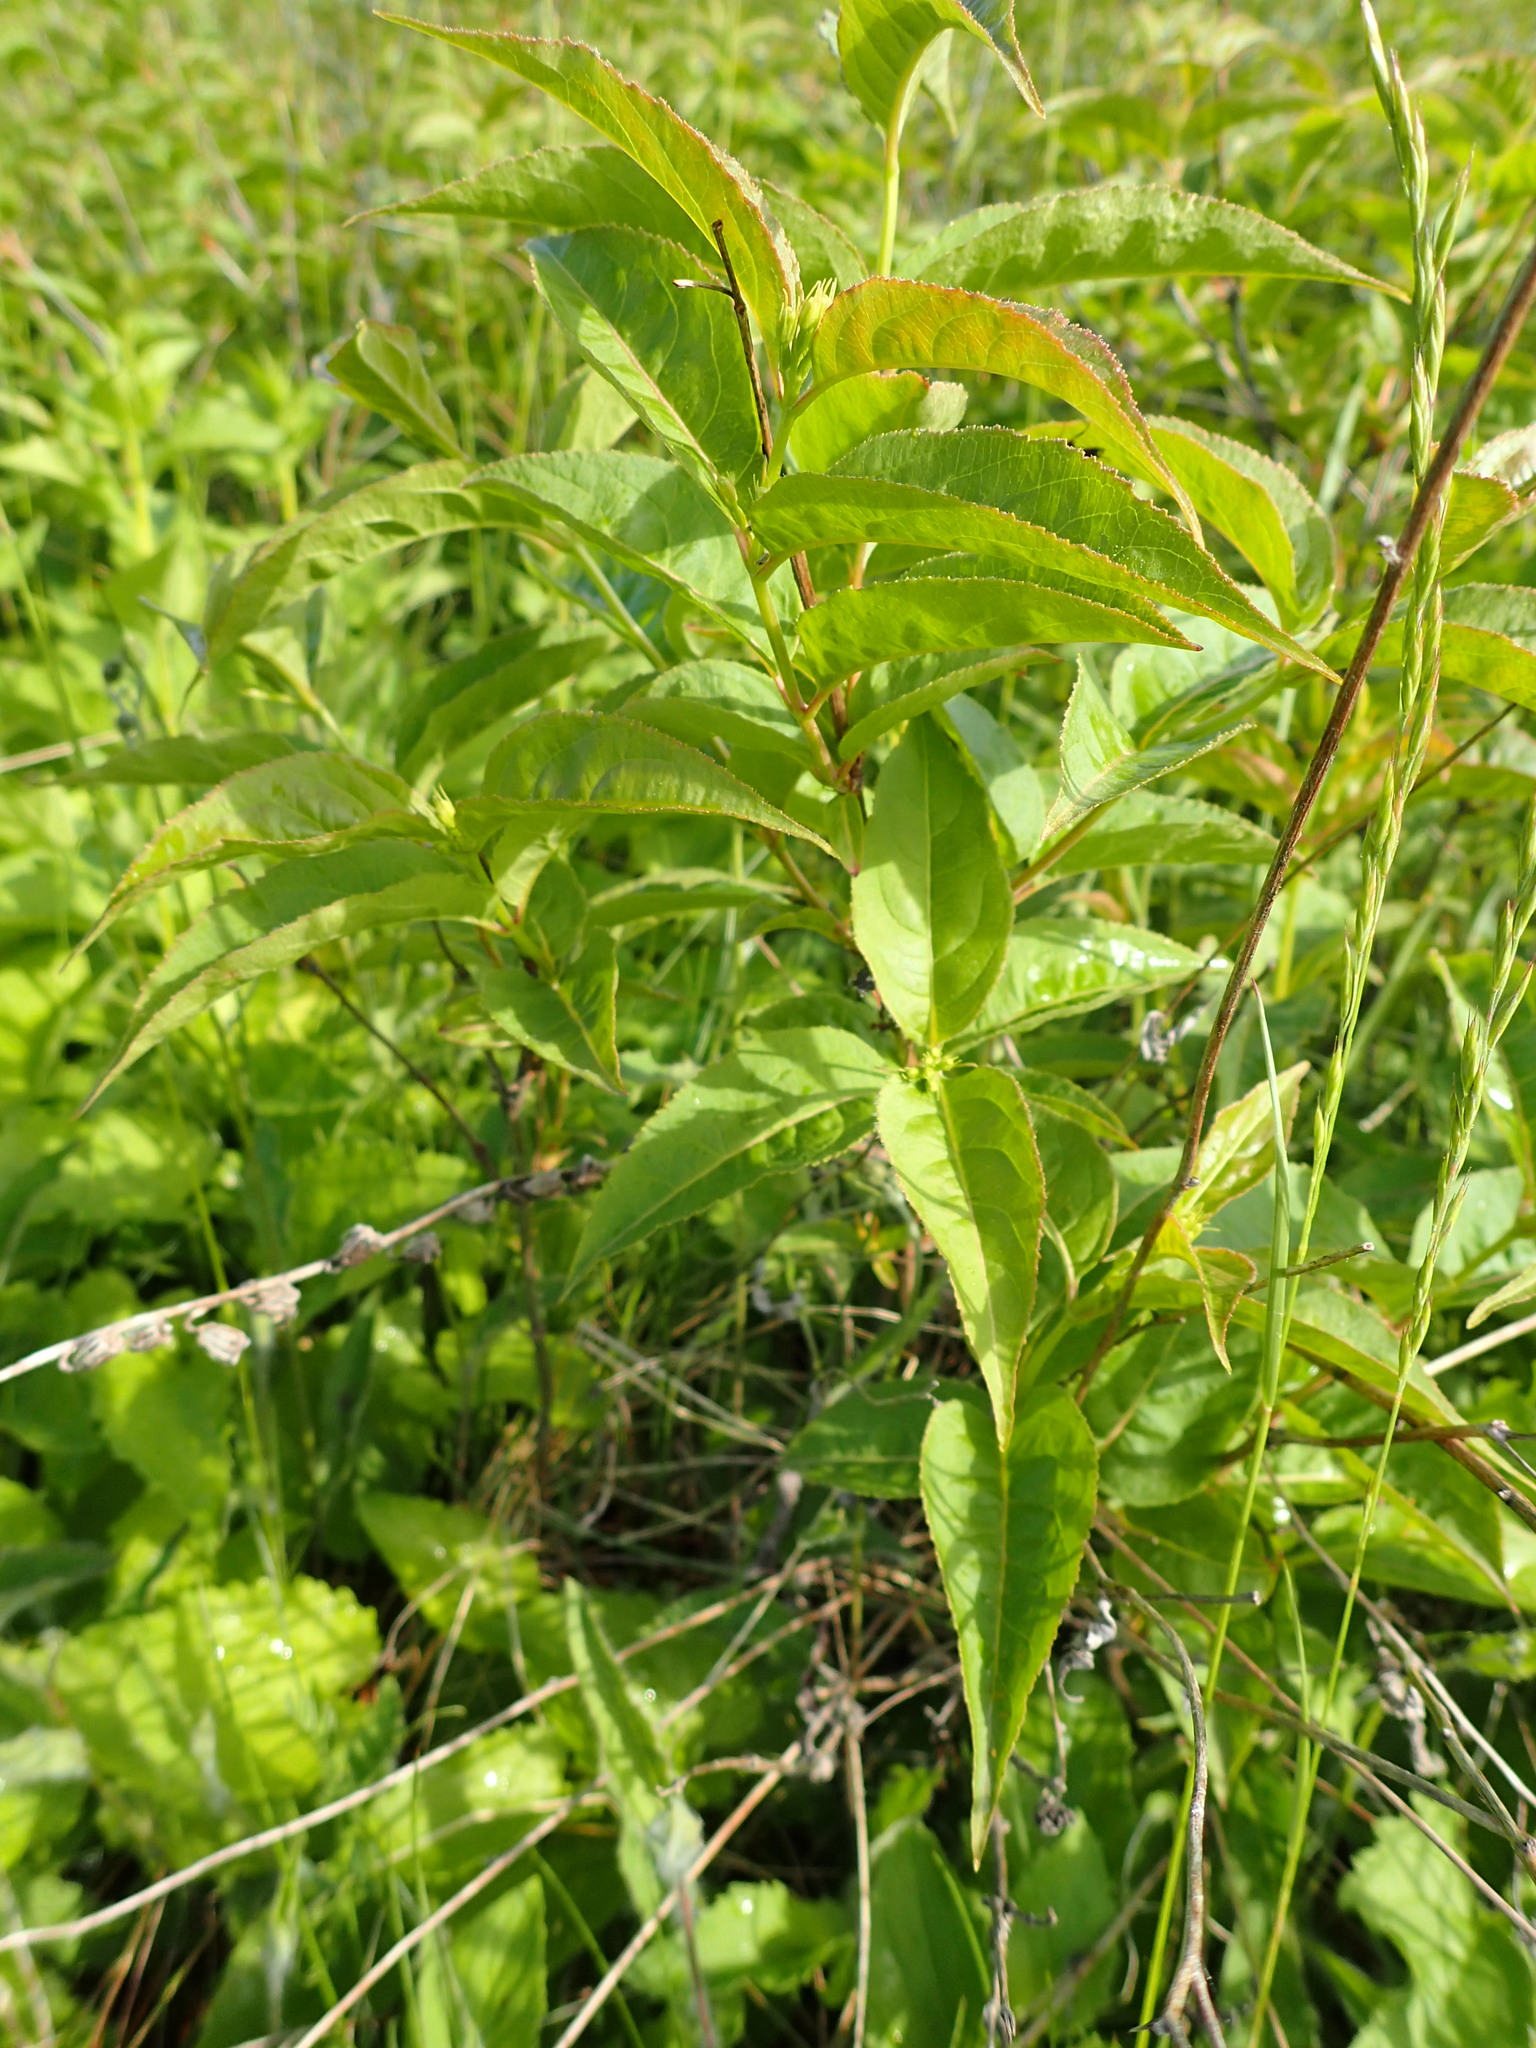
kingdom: Plantae
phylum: Tracheophyta
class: Magnoliopsida
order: Dipsacales
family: Caprifoliaceae
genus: Diervilla
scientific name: Diervilla lonicera
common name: Bush-honeysuckle
